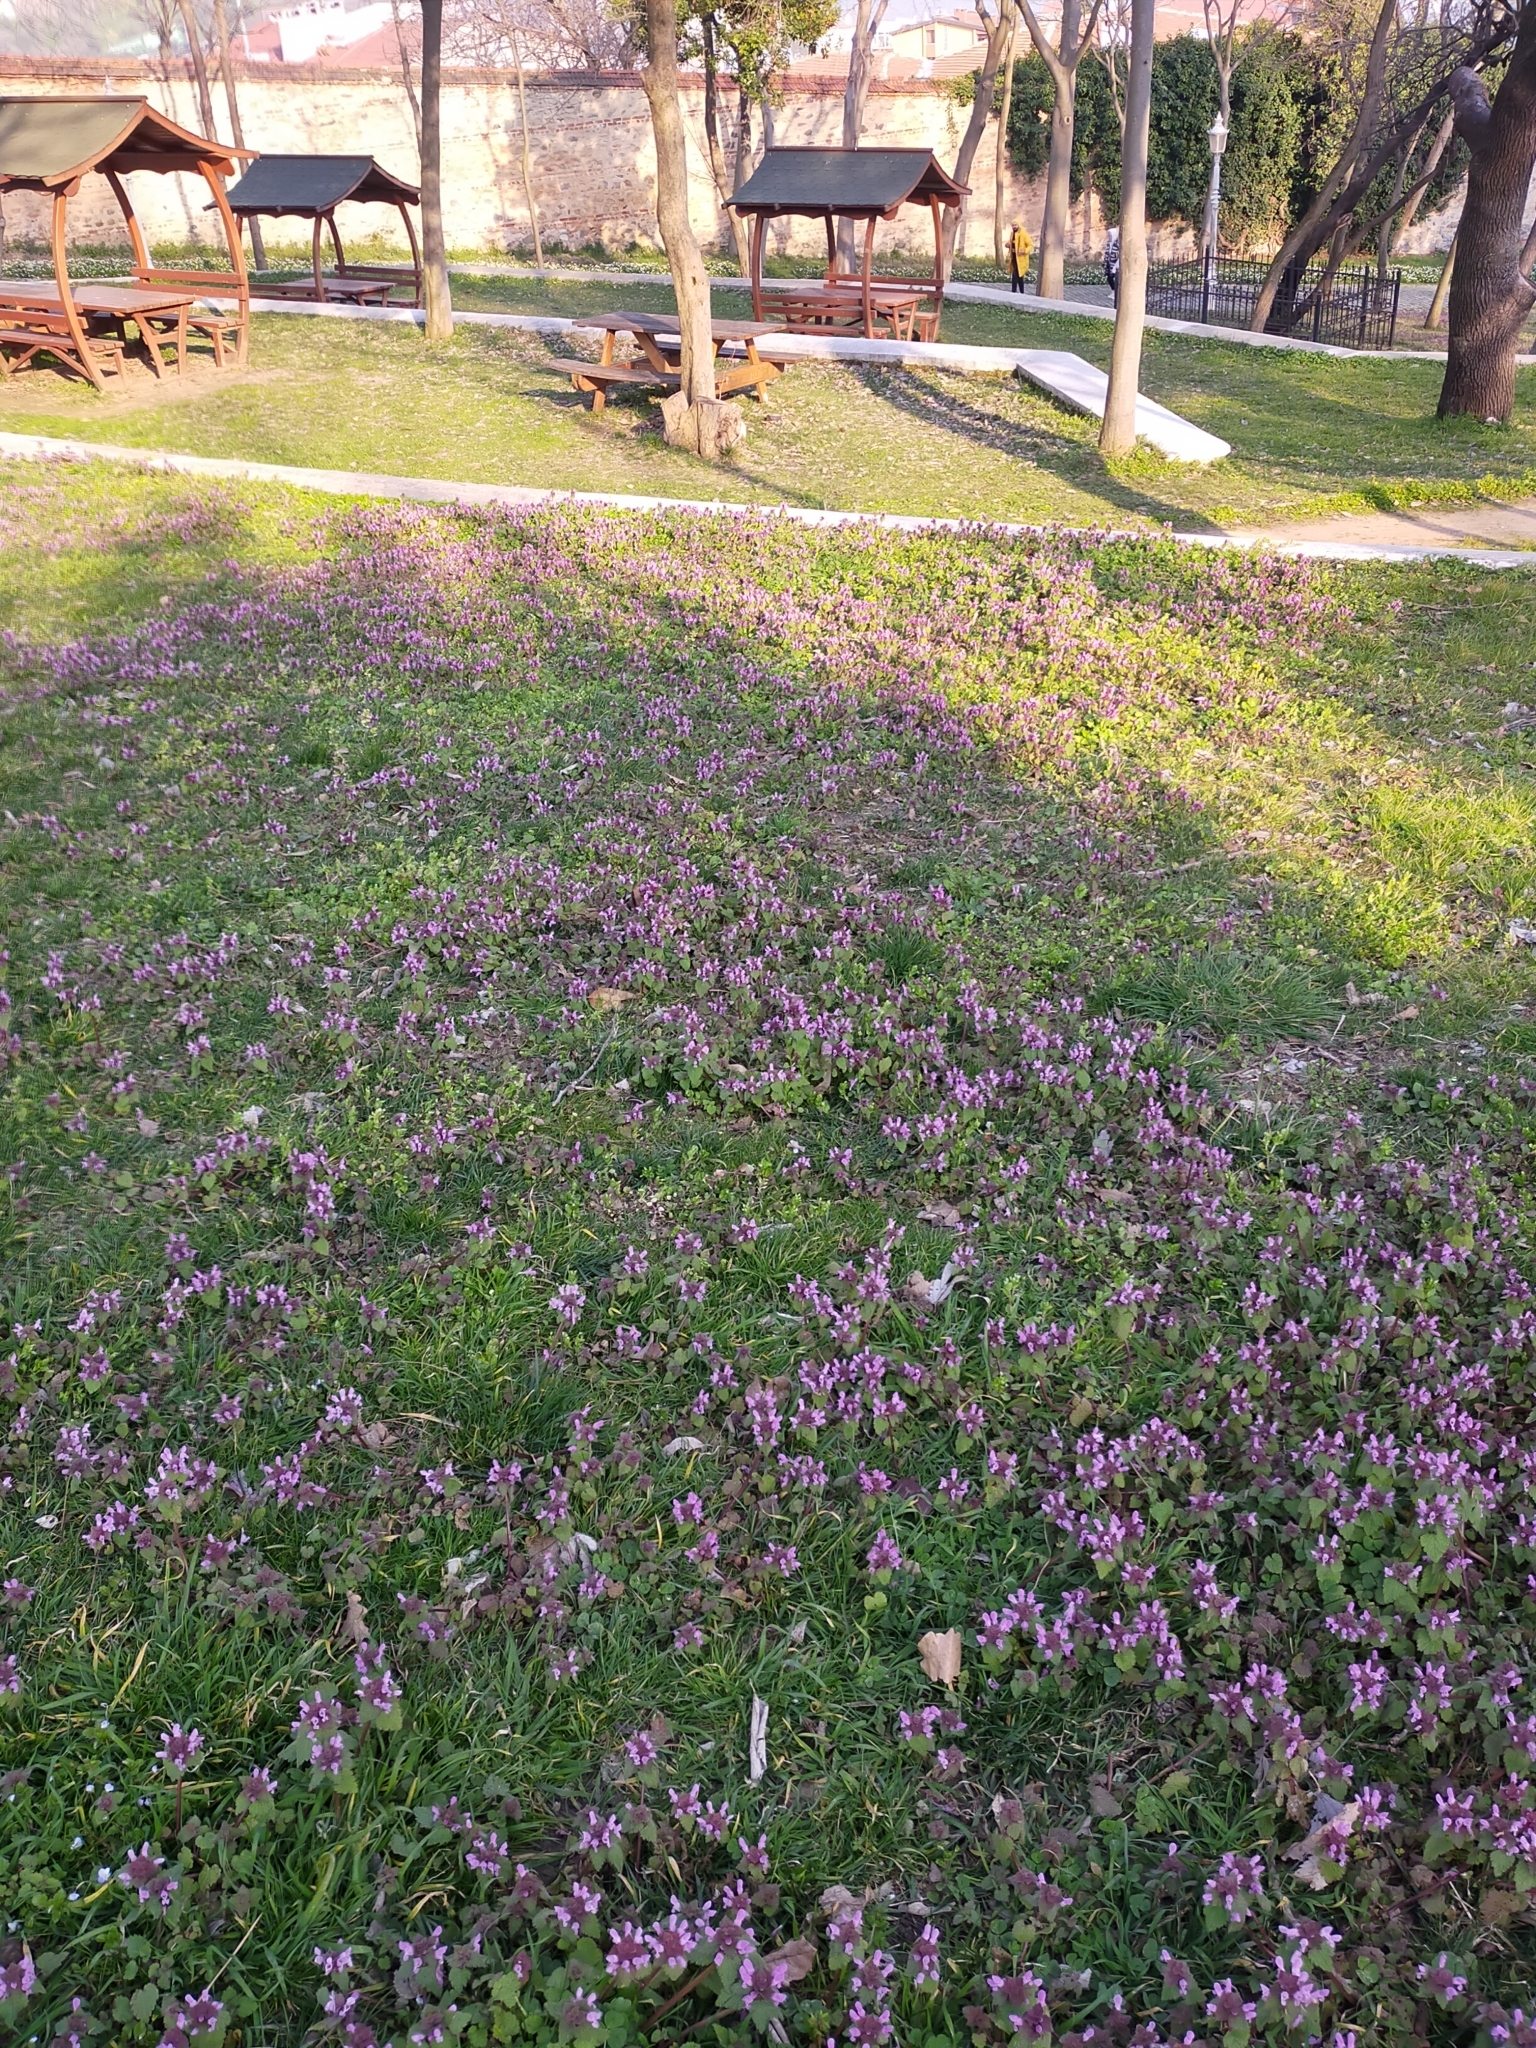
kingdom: Plantae
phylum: Tracheophyta
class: Magnoliopsida
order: Lamiales
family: Lamiaceae
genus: Lamium
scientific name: Lamium purpureum
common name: Red dead-nettle
